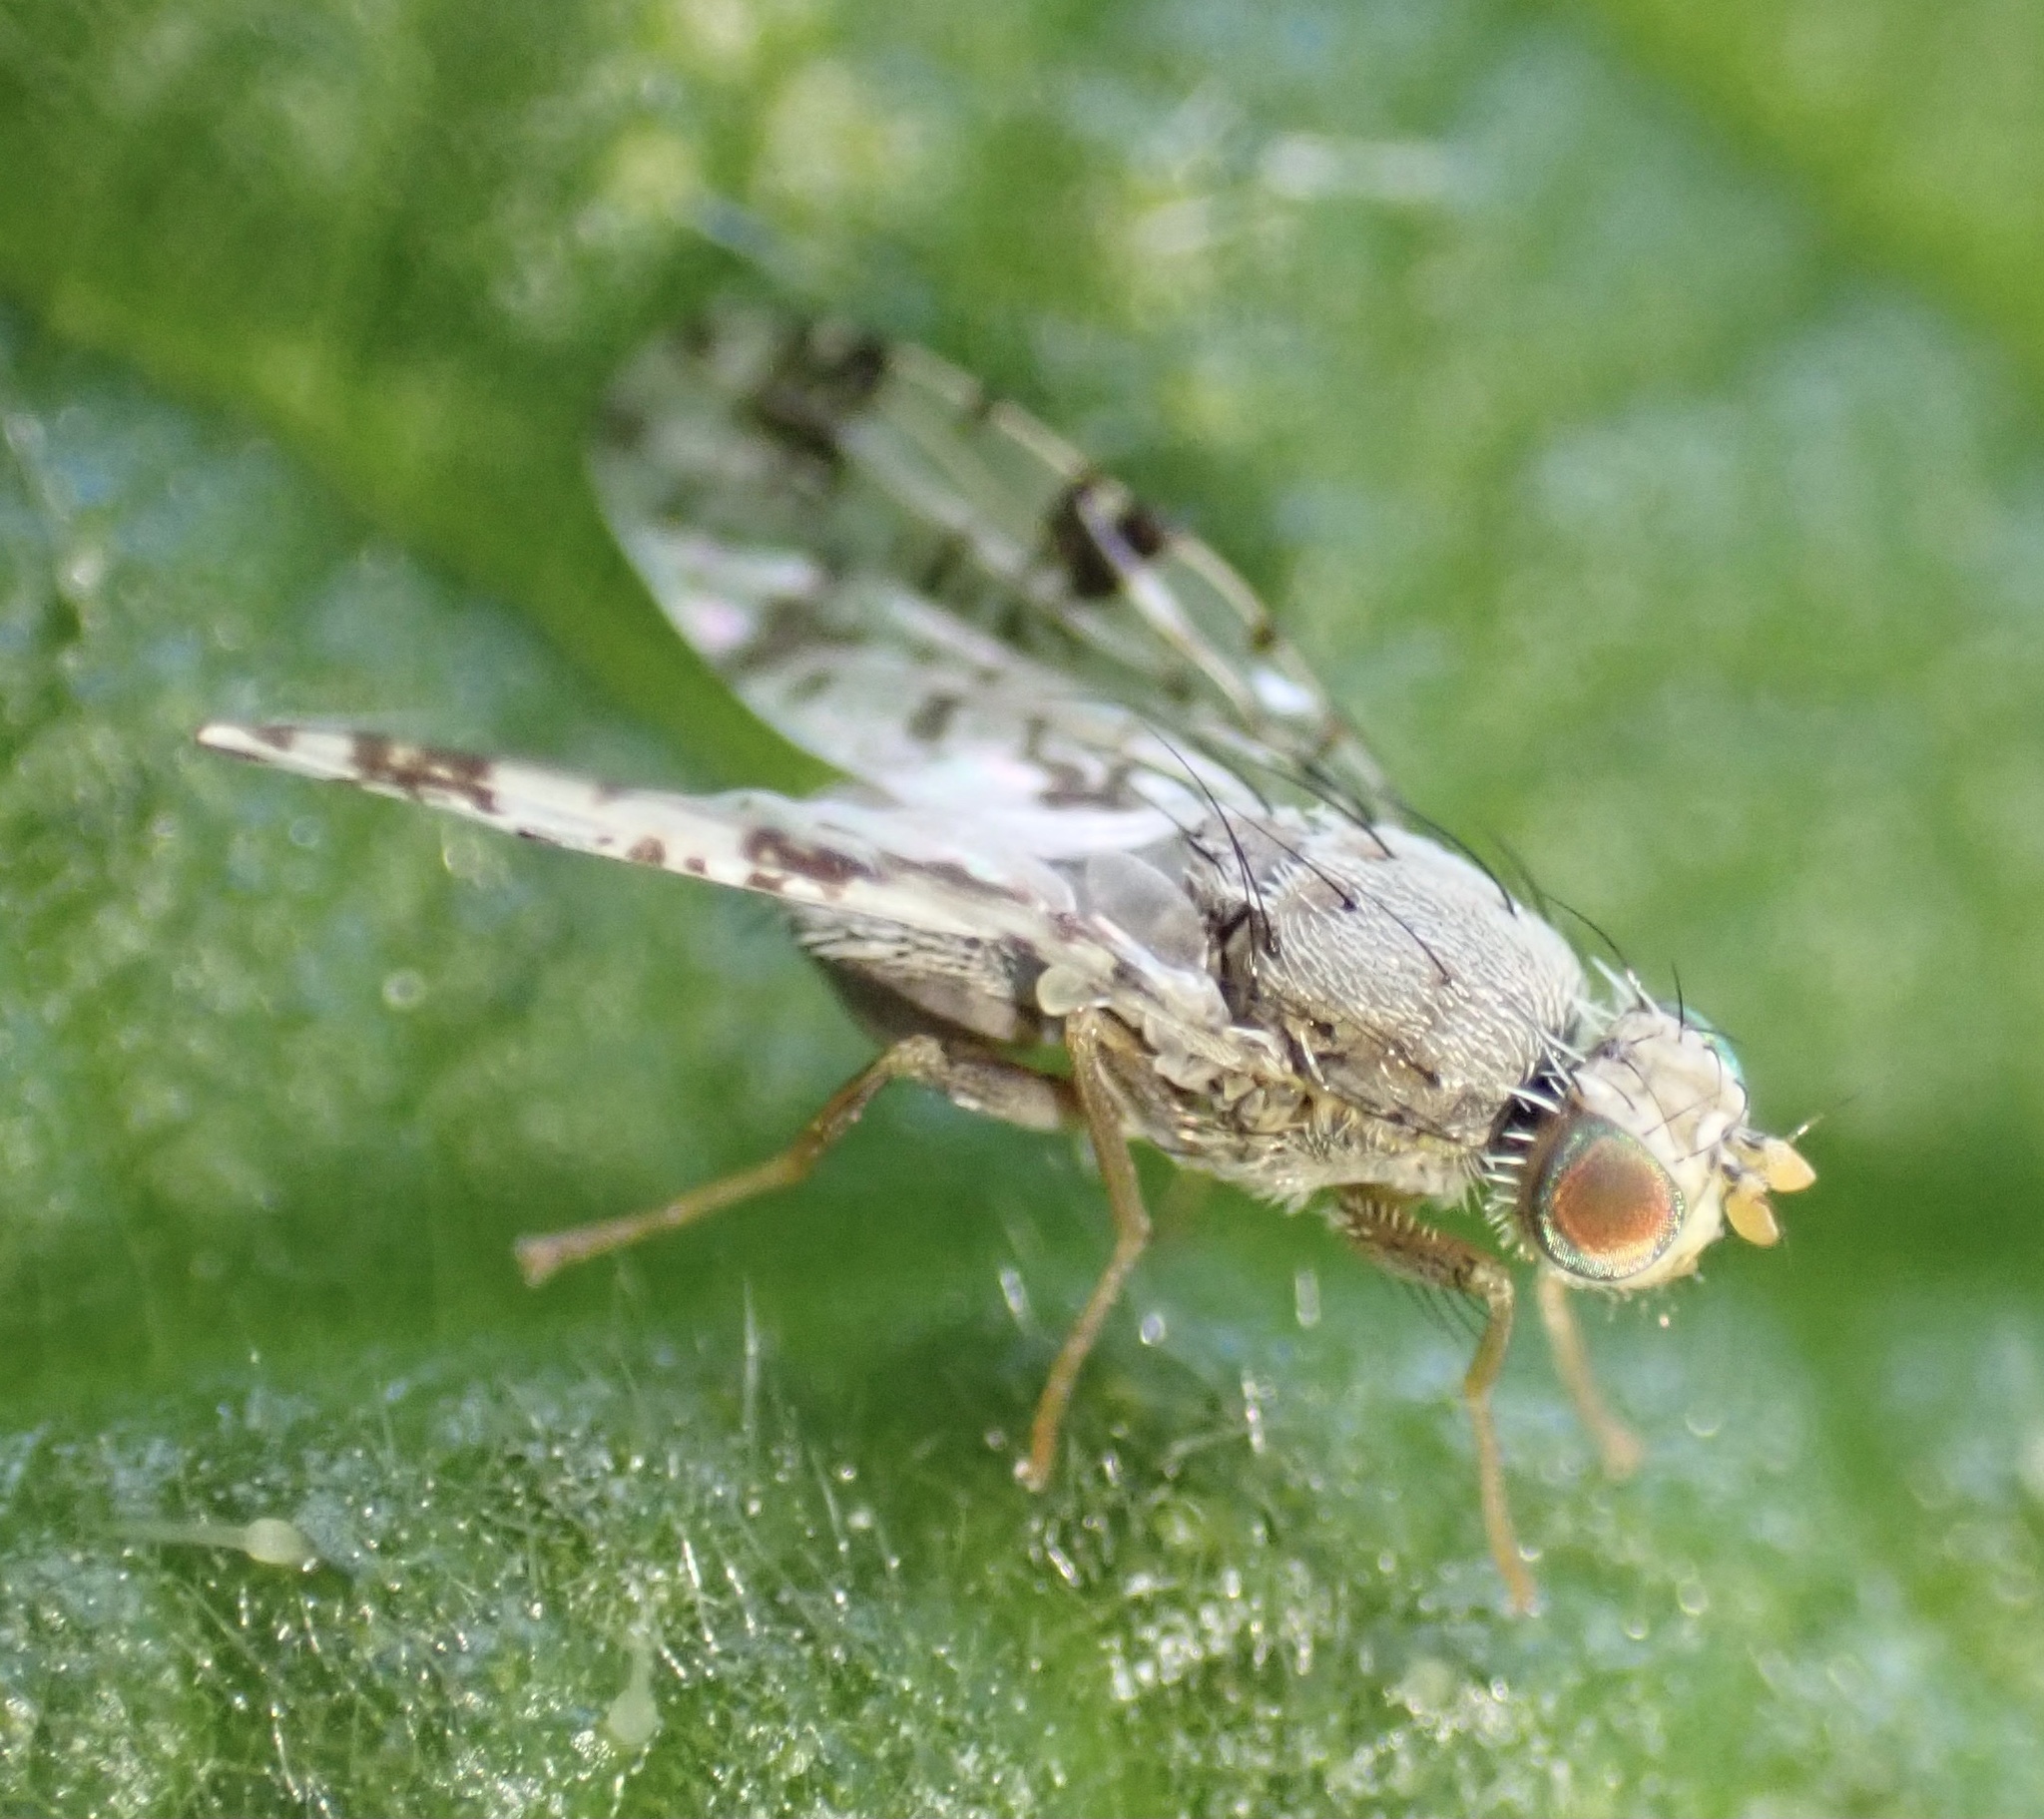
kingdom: Animalia
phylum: Arthropoda
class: Insecta
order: Diptera
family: Tephritidae
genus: Tephritis
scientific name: Tephritis hyoscyami
